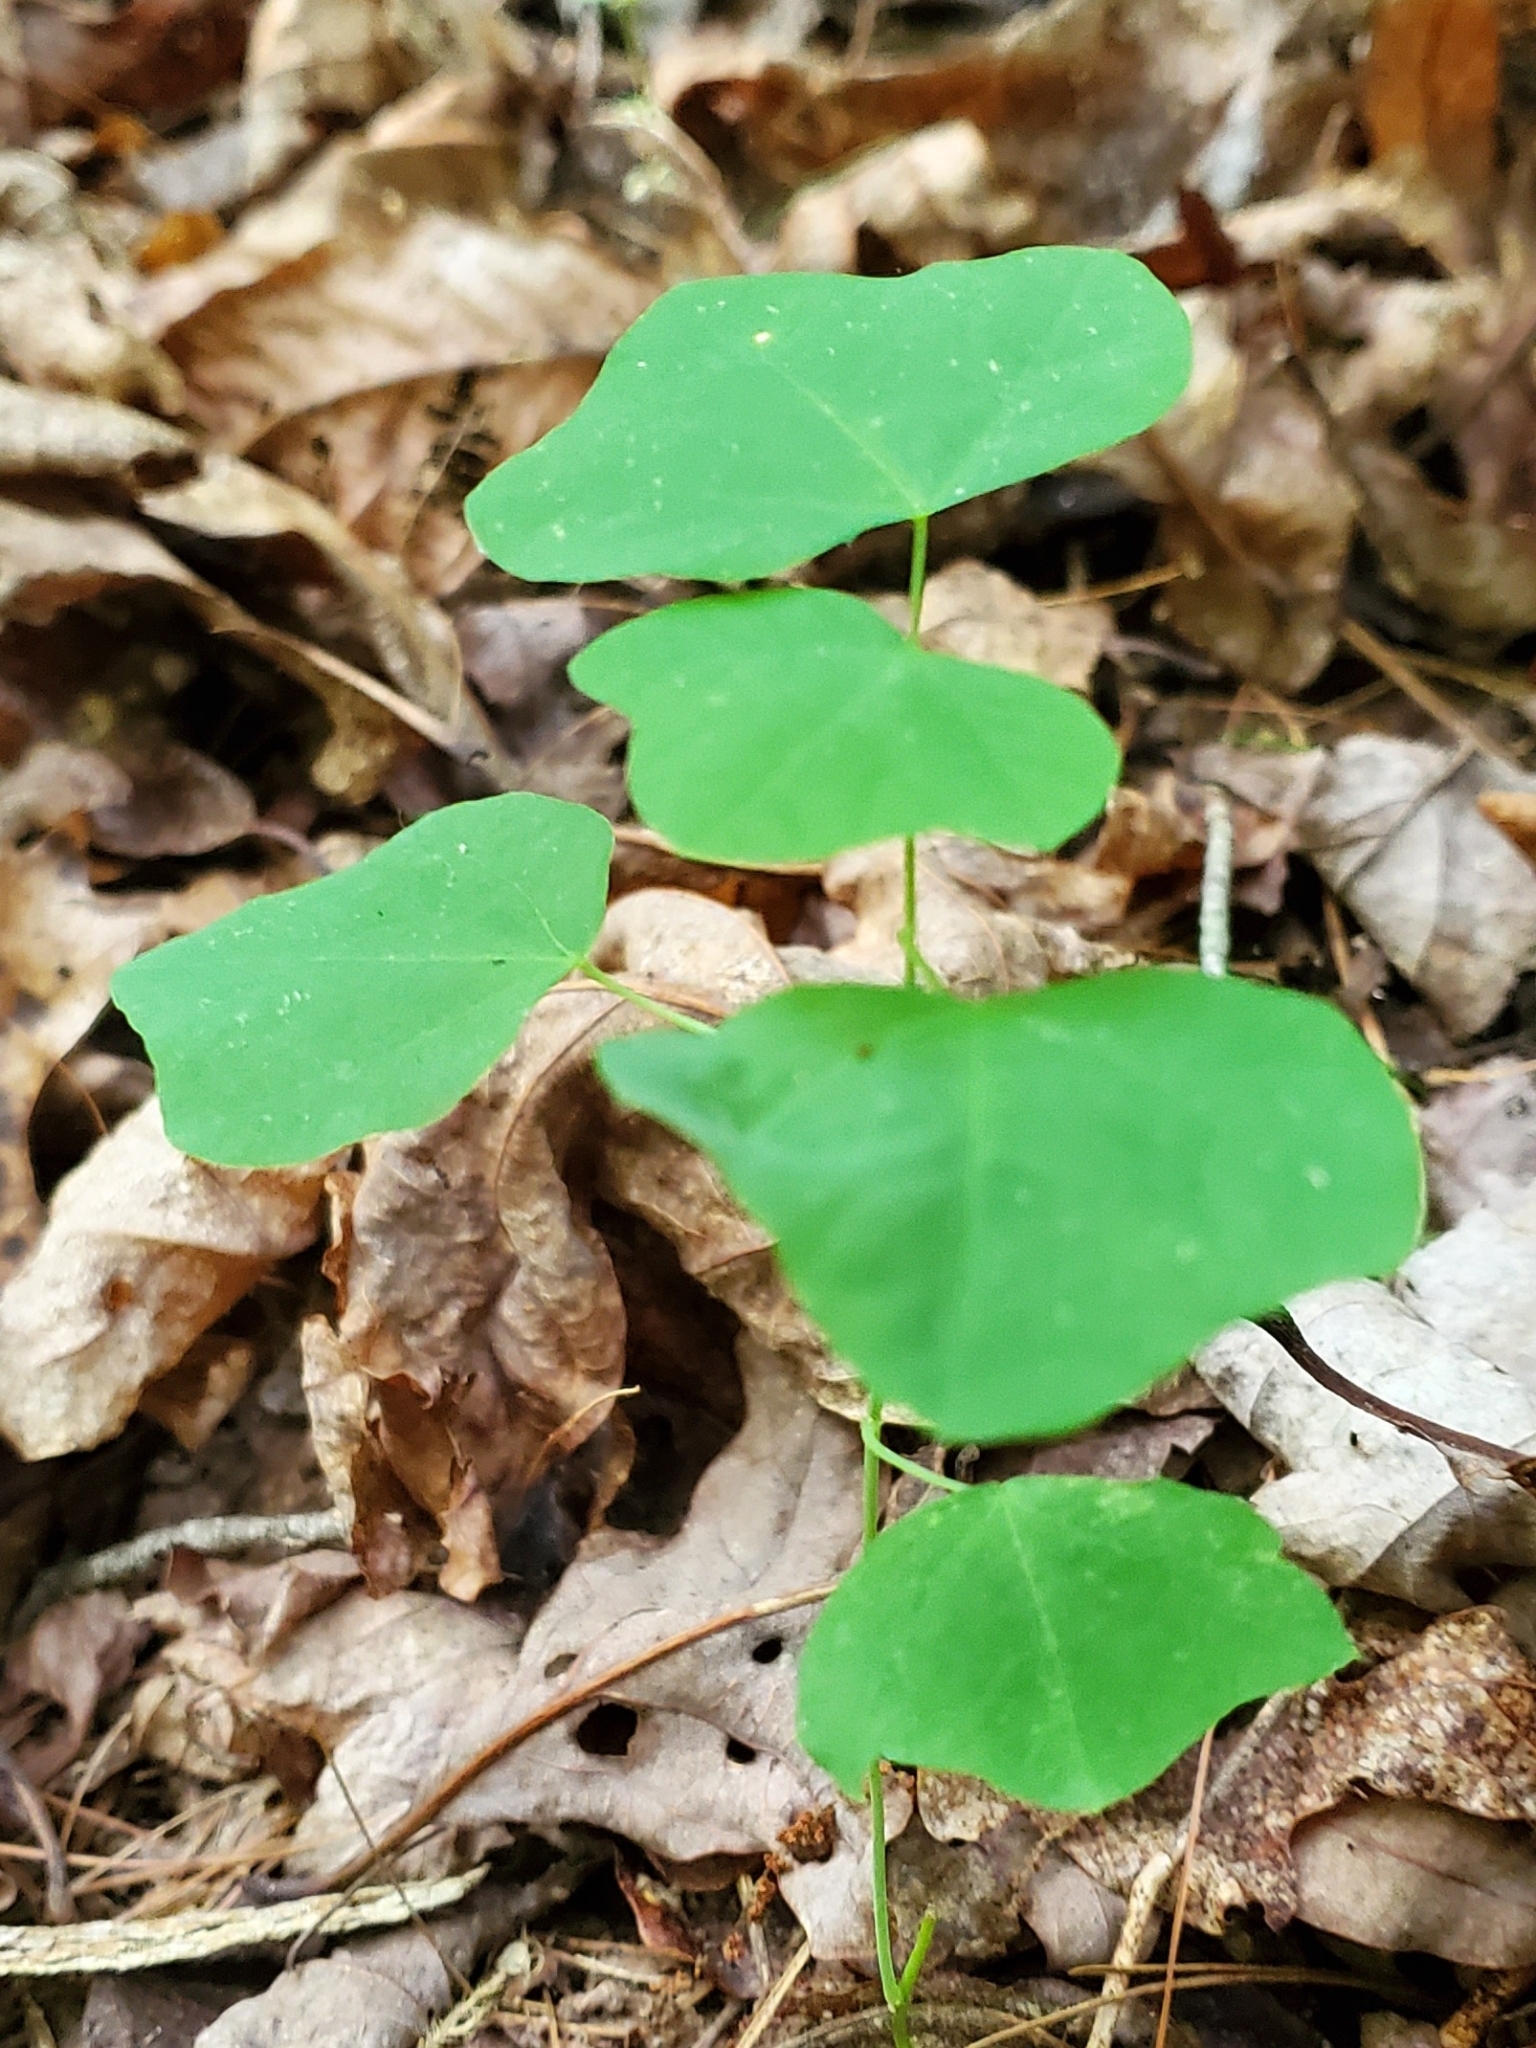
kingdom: Plantae
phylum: Tracheophyta
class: Magnoliopsida
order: Malpighiales
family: Passifloraceae
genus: Passiflora
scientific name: Passiflora lutea
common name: Yellow passionflower
